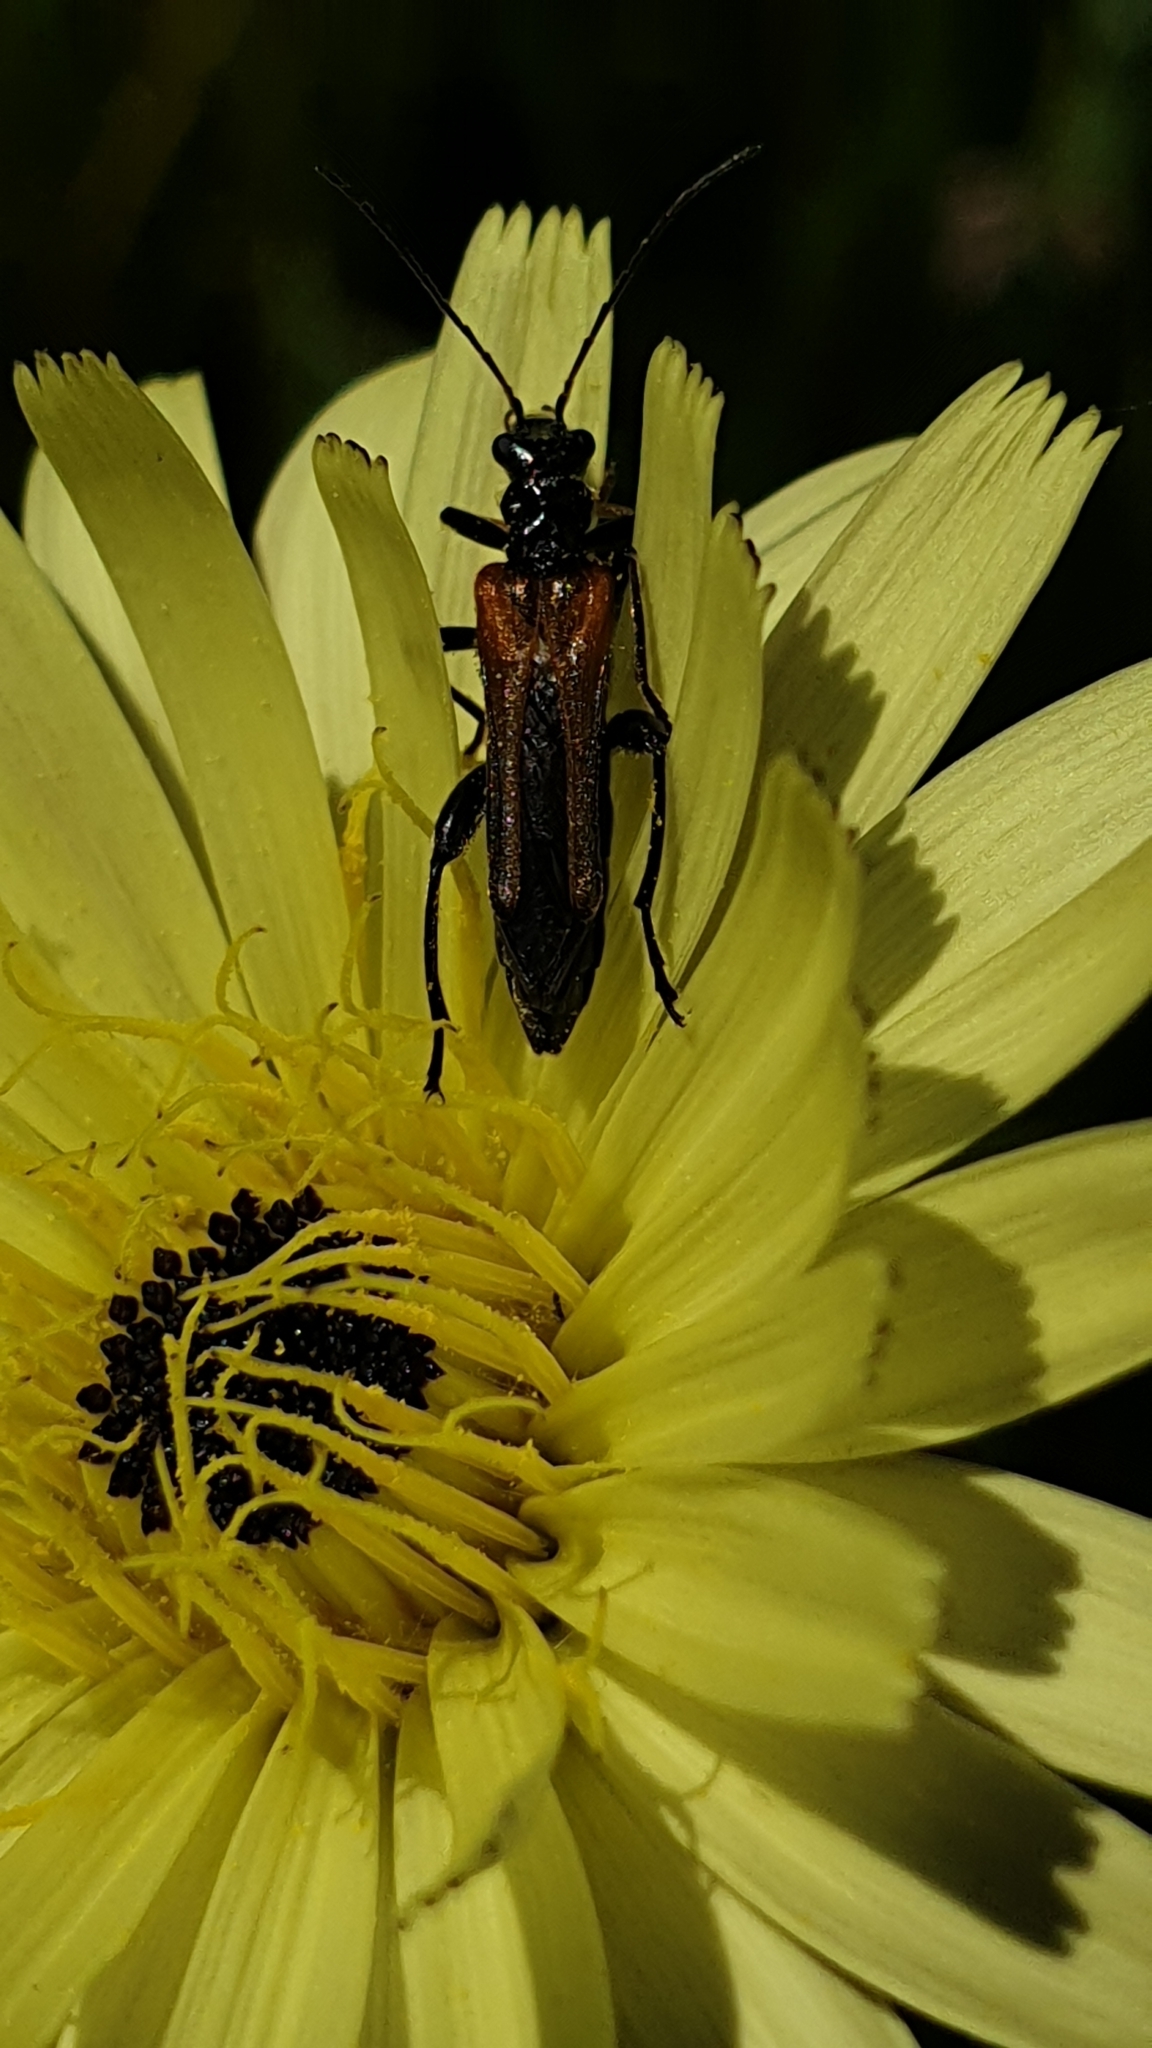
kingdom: Animalia
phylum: Arthropoda
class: Insecta
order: Coleoptera
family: Oedemeridae
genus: Oedemera
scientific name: Oedemera simplex
